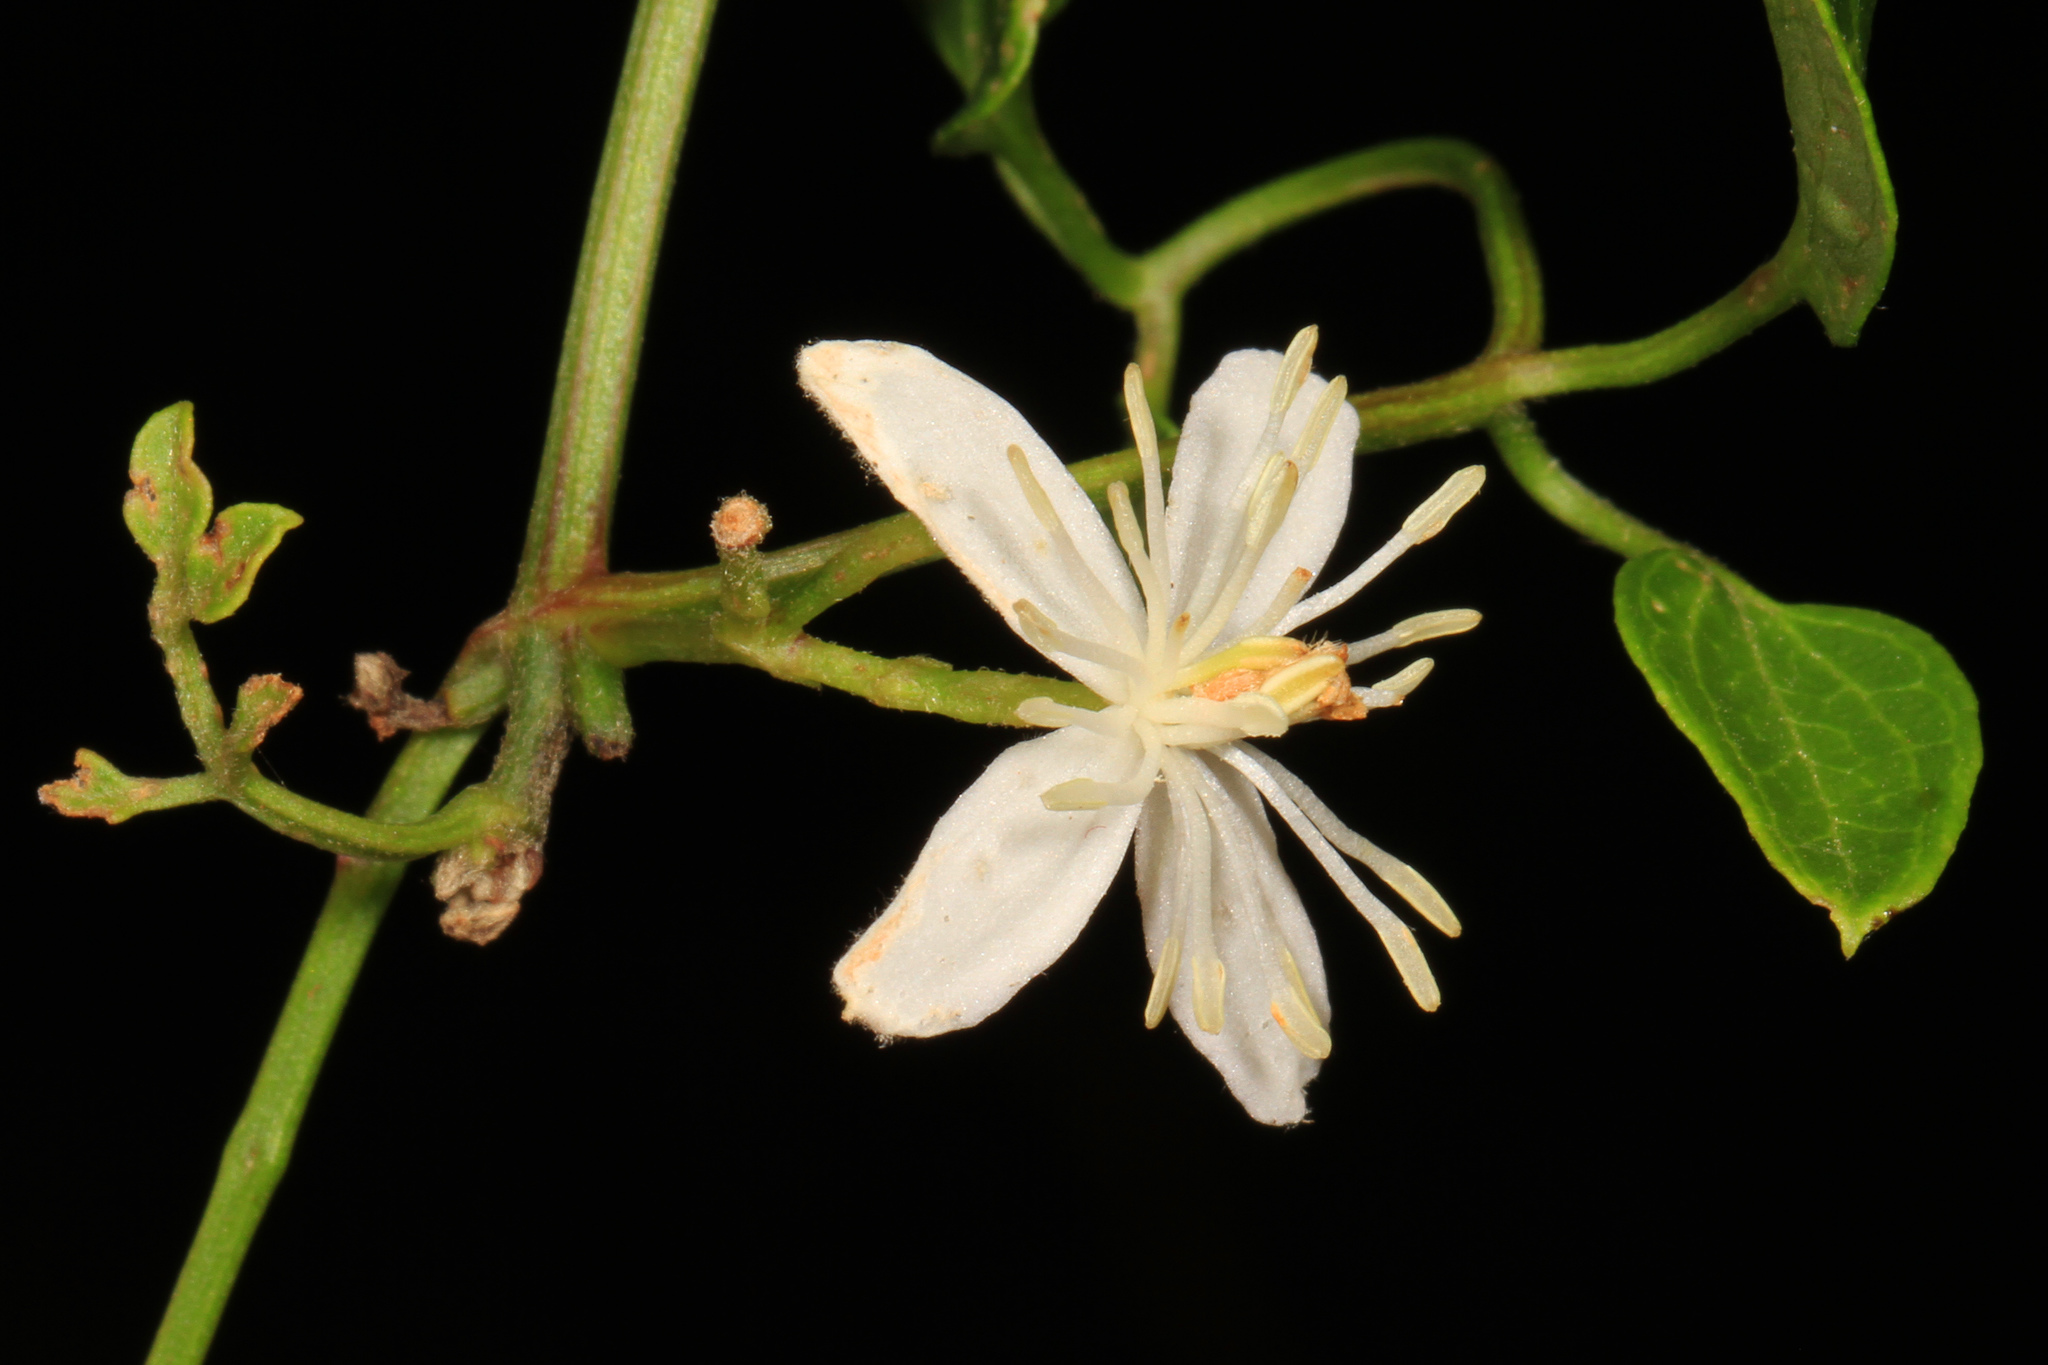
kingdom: Plantae
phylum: Tracheophyta
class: Magnoliopsida
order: Ranunculales
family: Ranunculaceae
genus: Clematis
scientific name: Clematis terniflora
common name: Sweet autumn clematis
